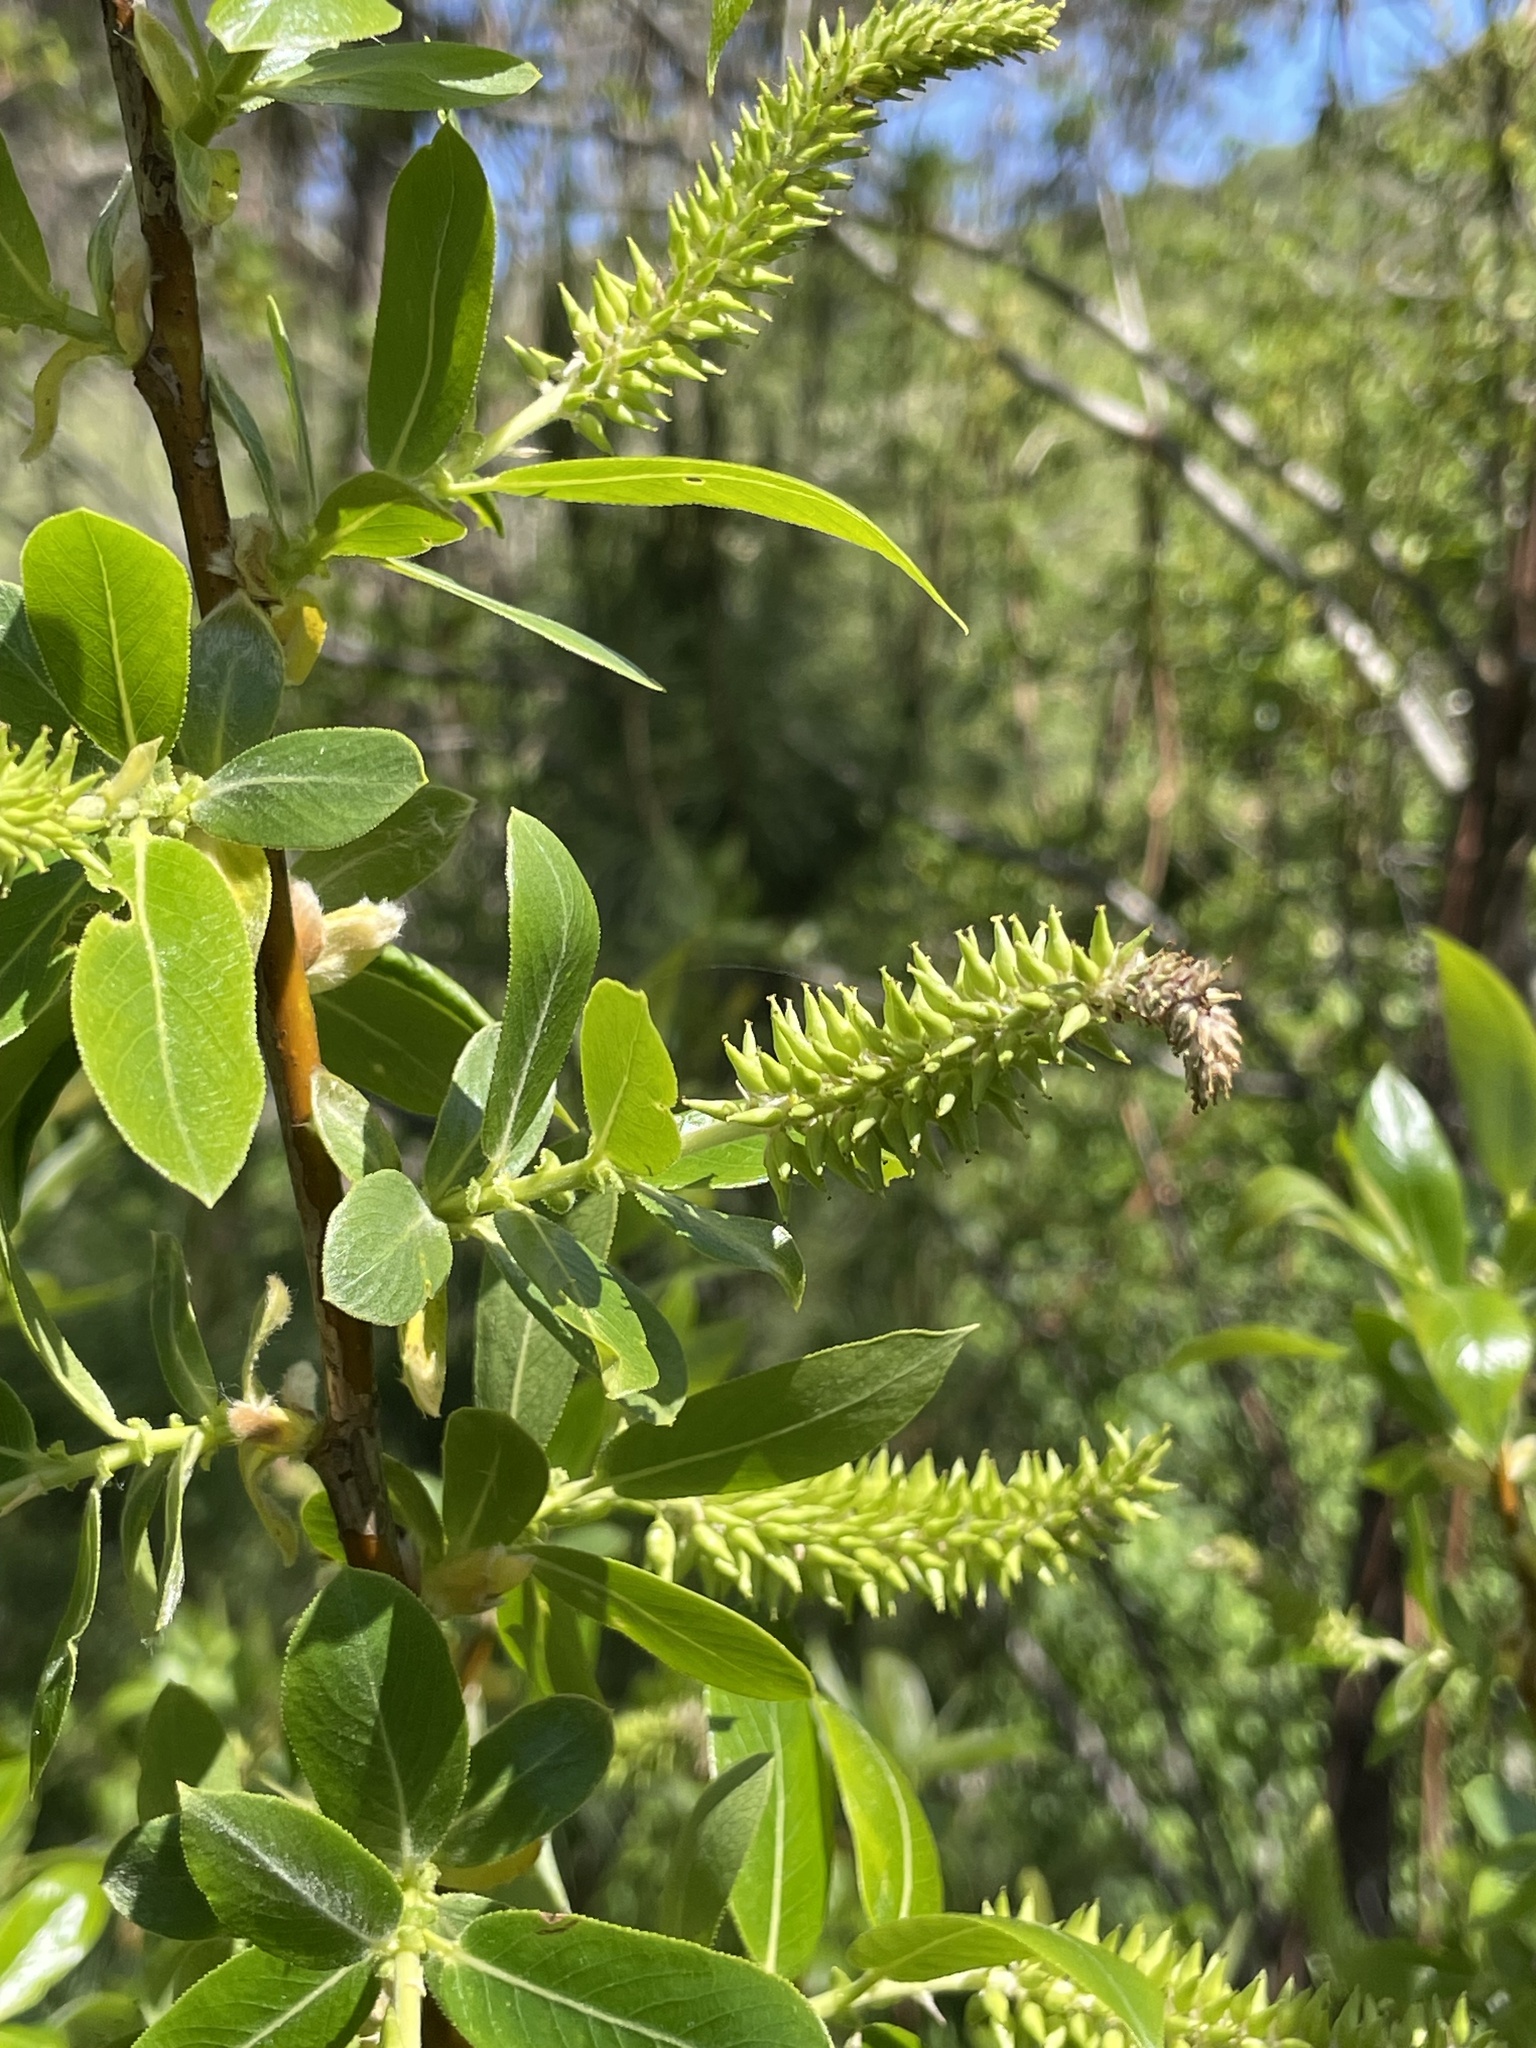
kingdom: Plantae
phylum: Tracheophyta
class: Magnoliopsida
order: Malpighiales
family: Salicaceae
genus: Salix
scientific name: Salix lucida
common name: Shining willow
